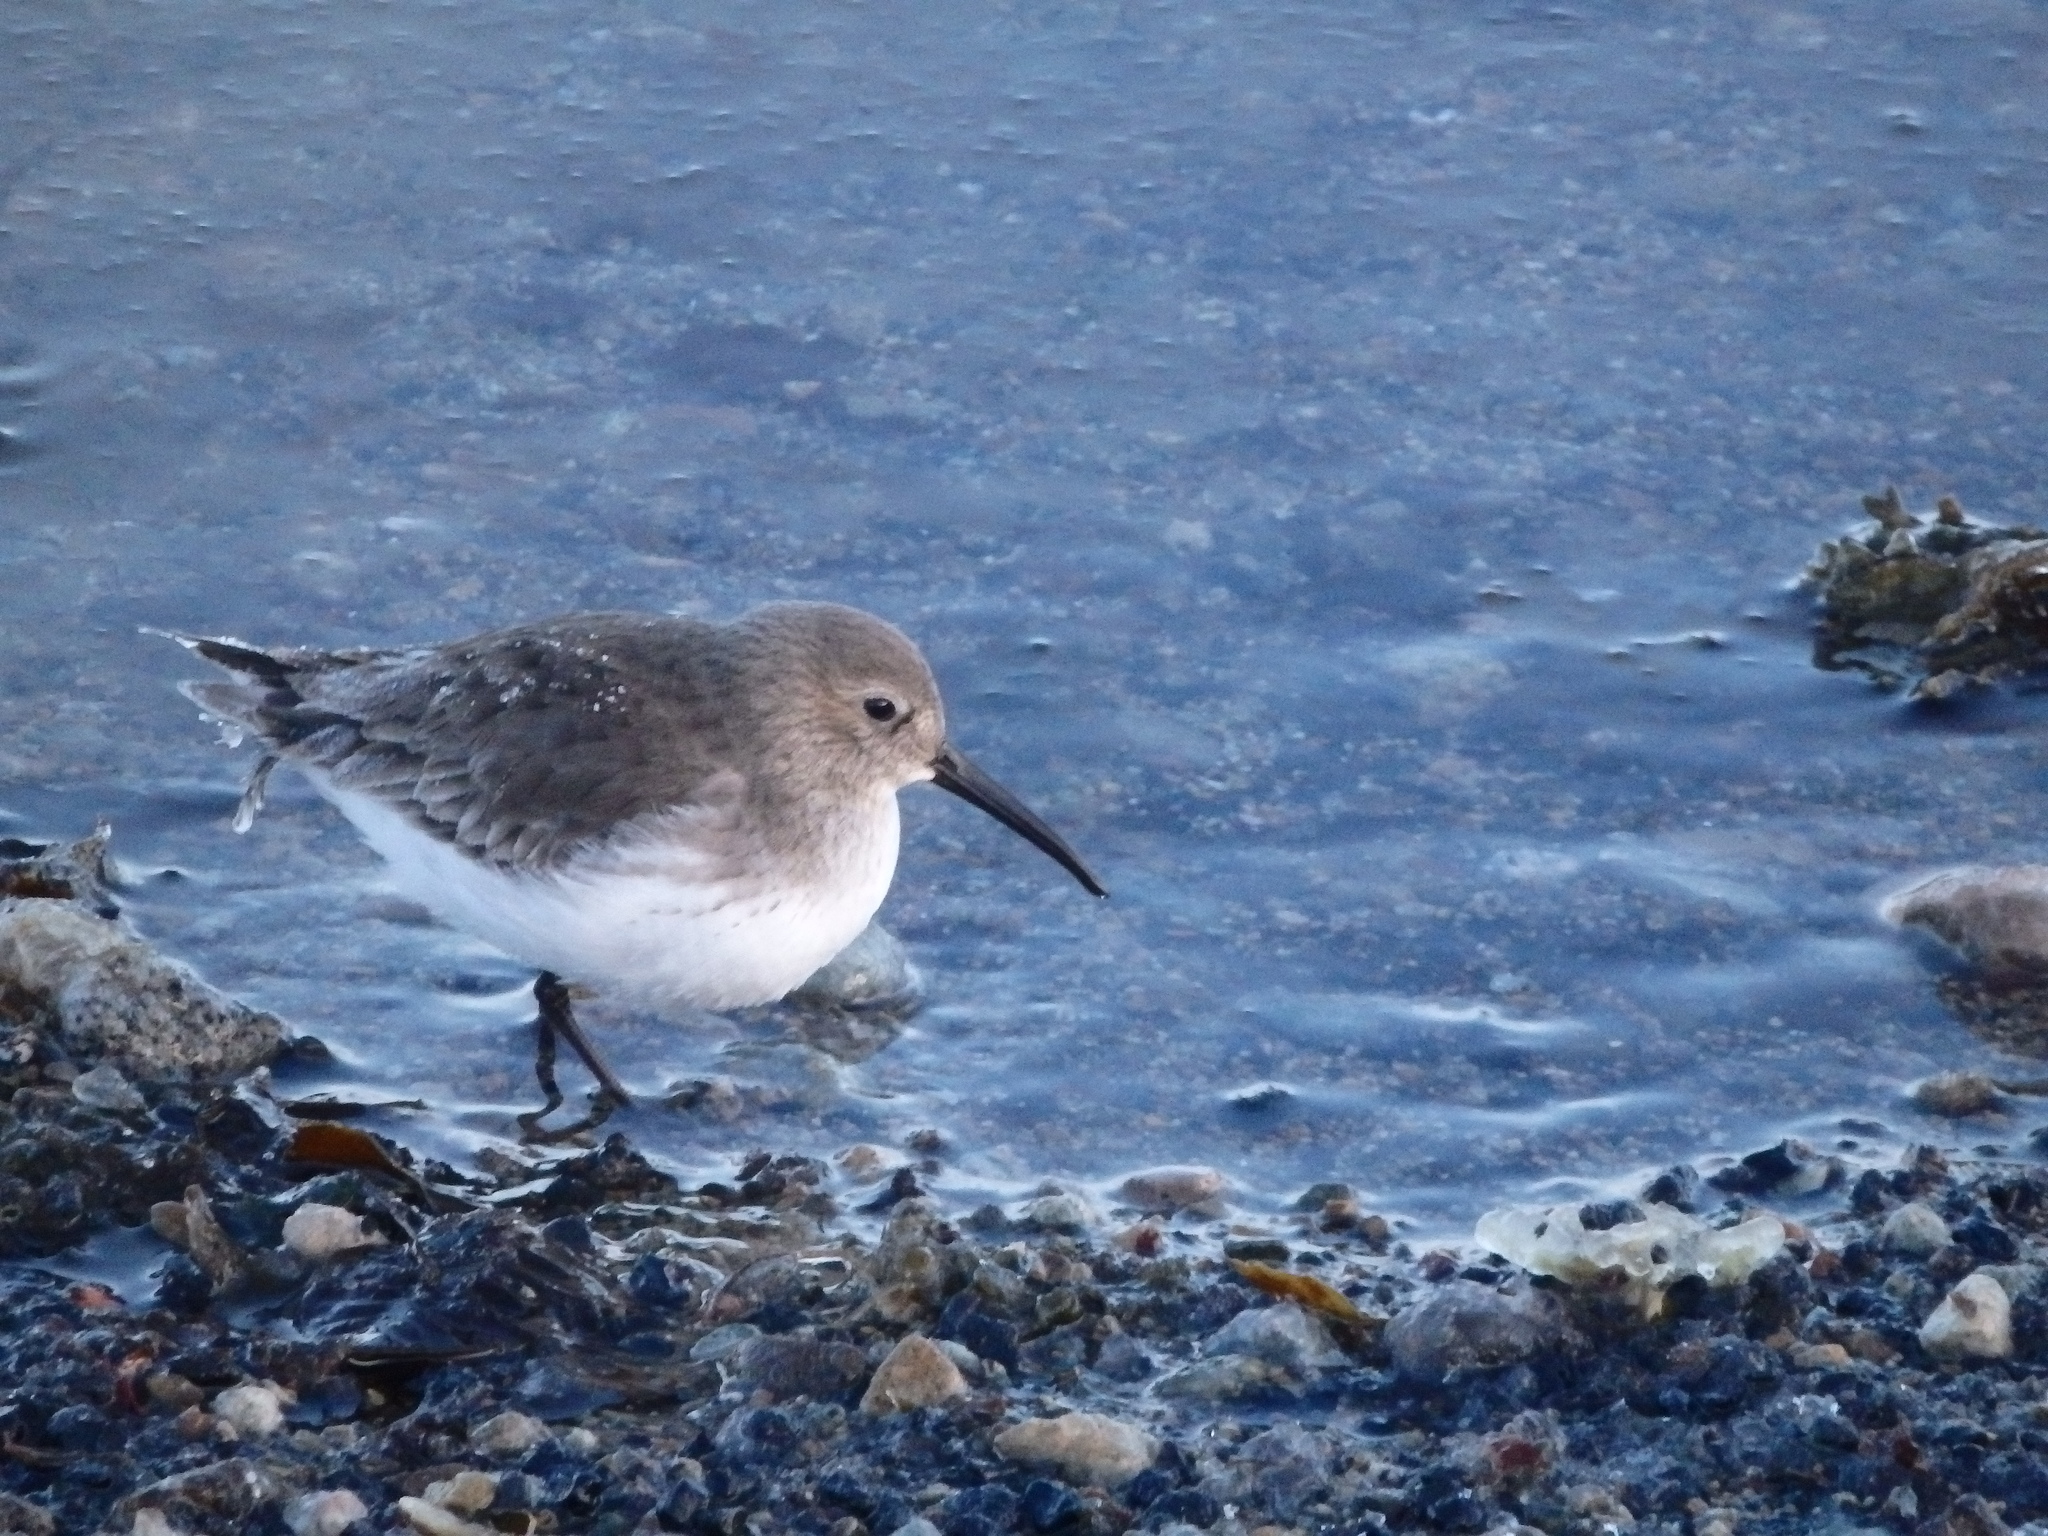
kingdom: Animalia
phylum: Chordata
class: Aves
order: Charadriiformes
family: Scolopacidae
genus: Calidris
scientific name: Calidris alpina
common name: Dunlin
